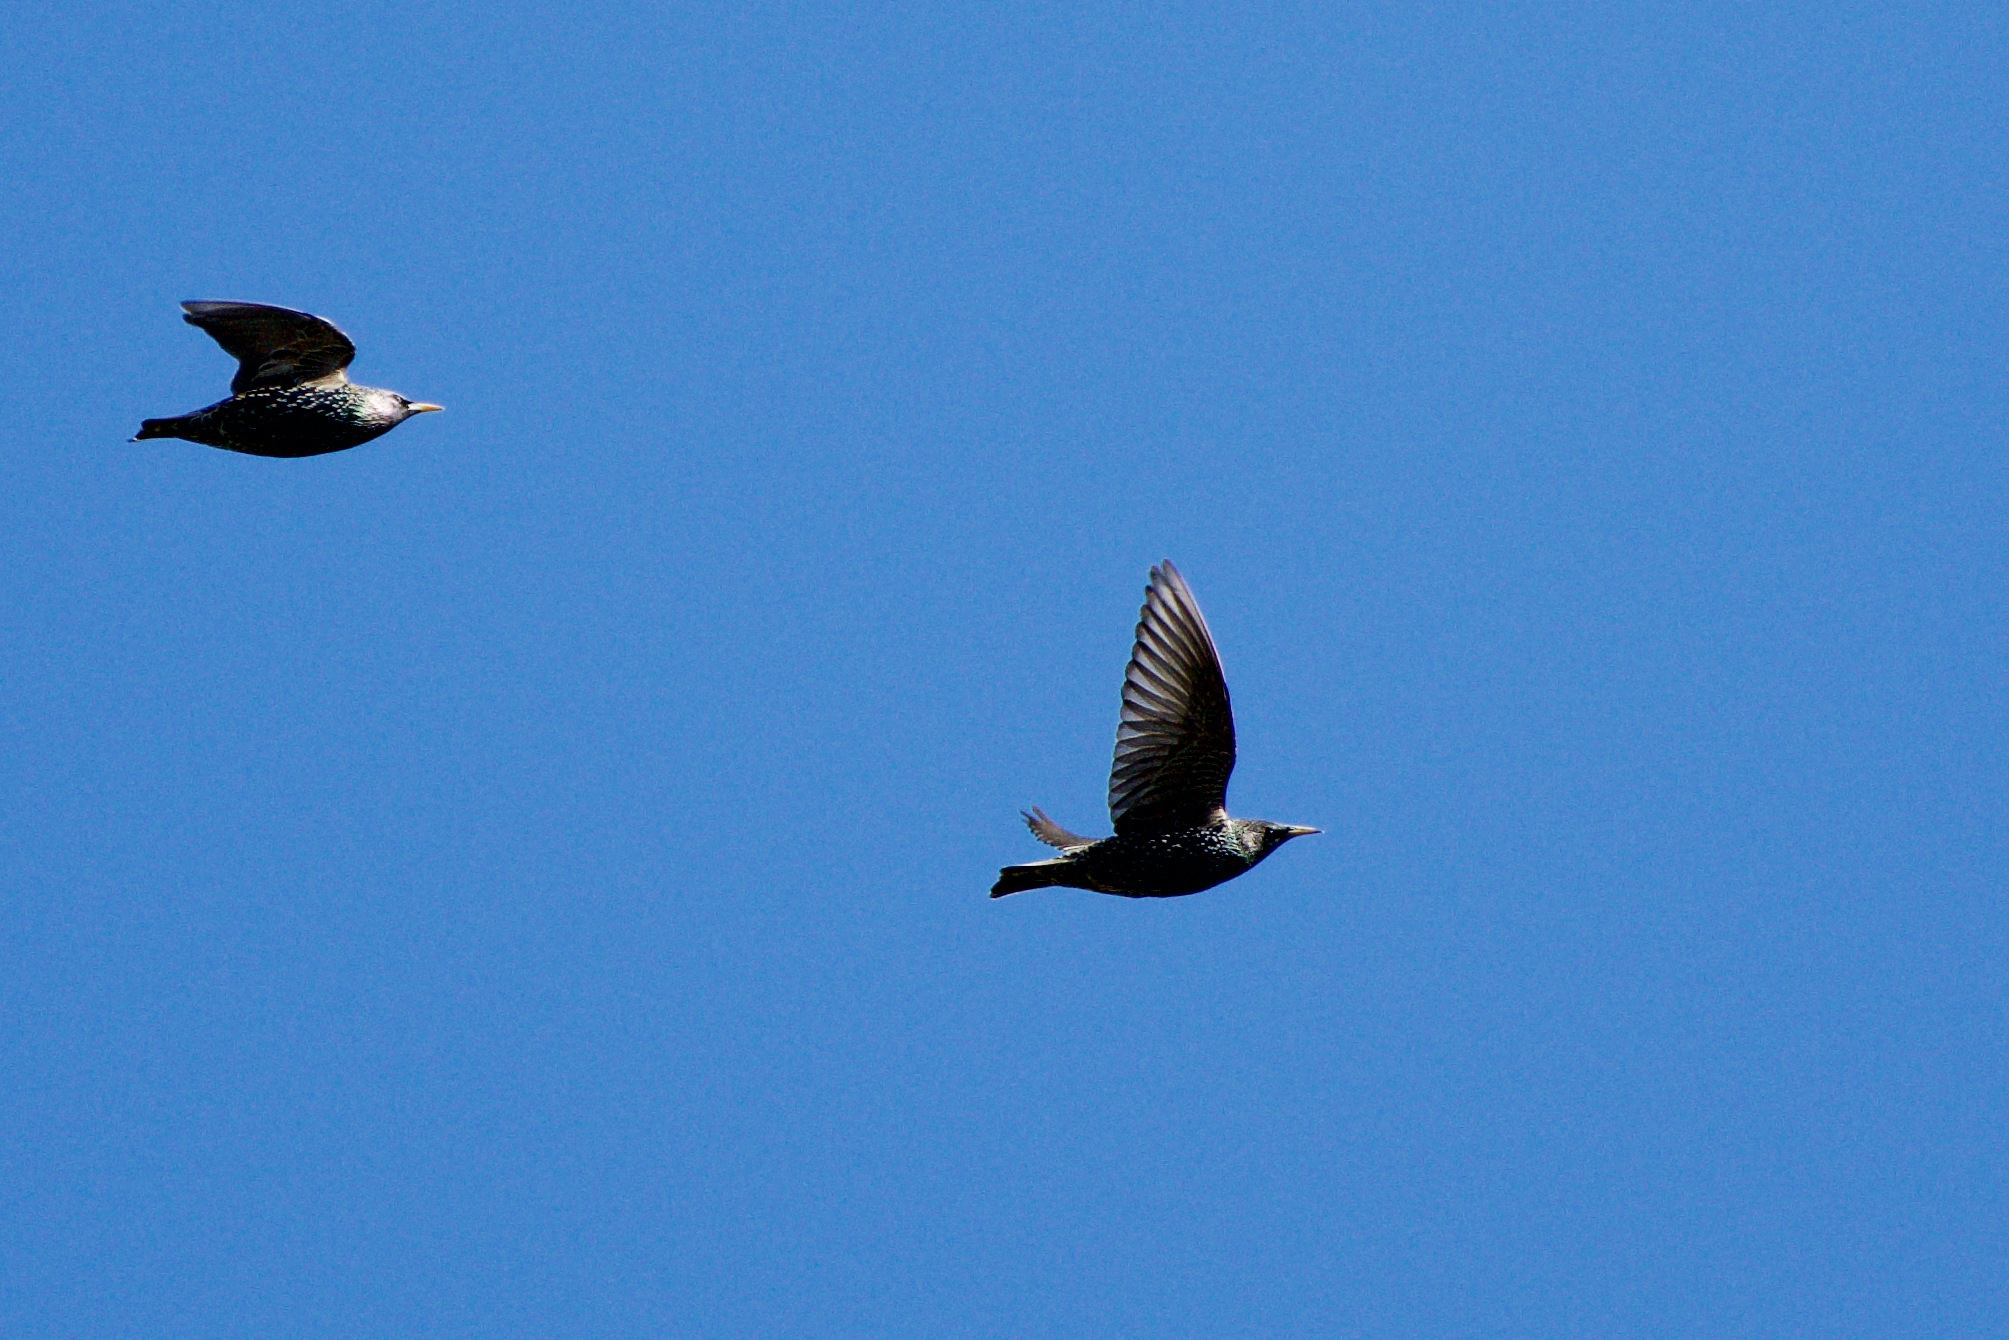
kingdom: Animalia
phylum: Chordata
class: Aves
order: Passeriformes
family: Sturnidae
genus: Sturnus
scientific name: Sturnus vulgaris
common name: Common starling
